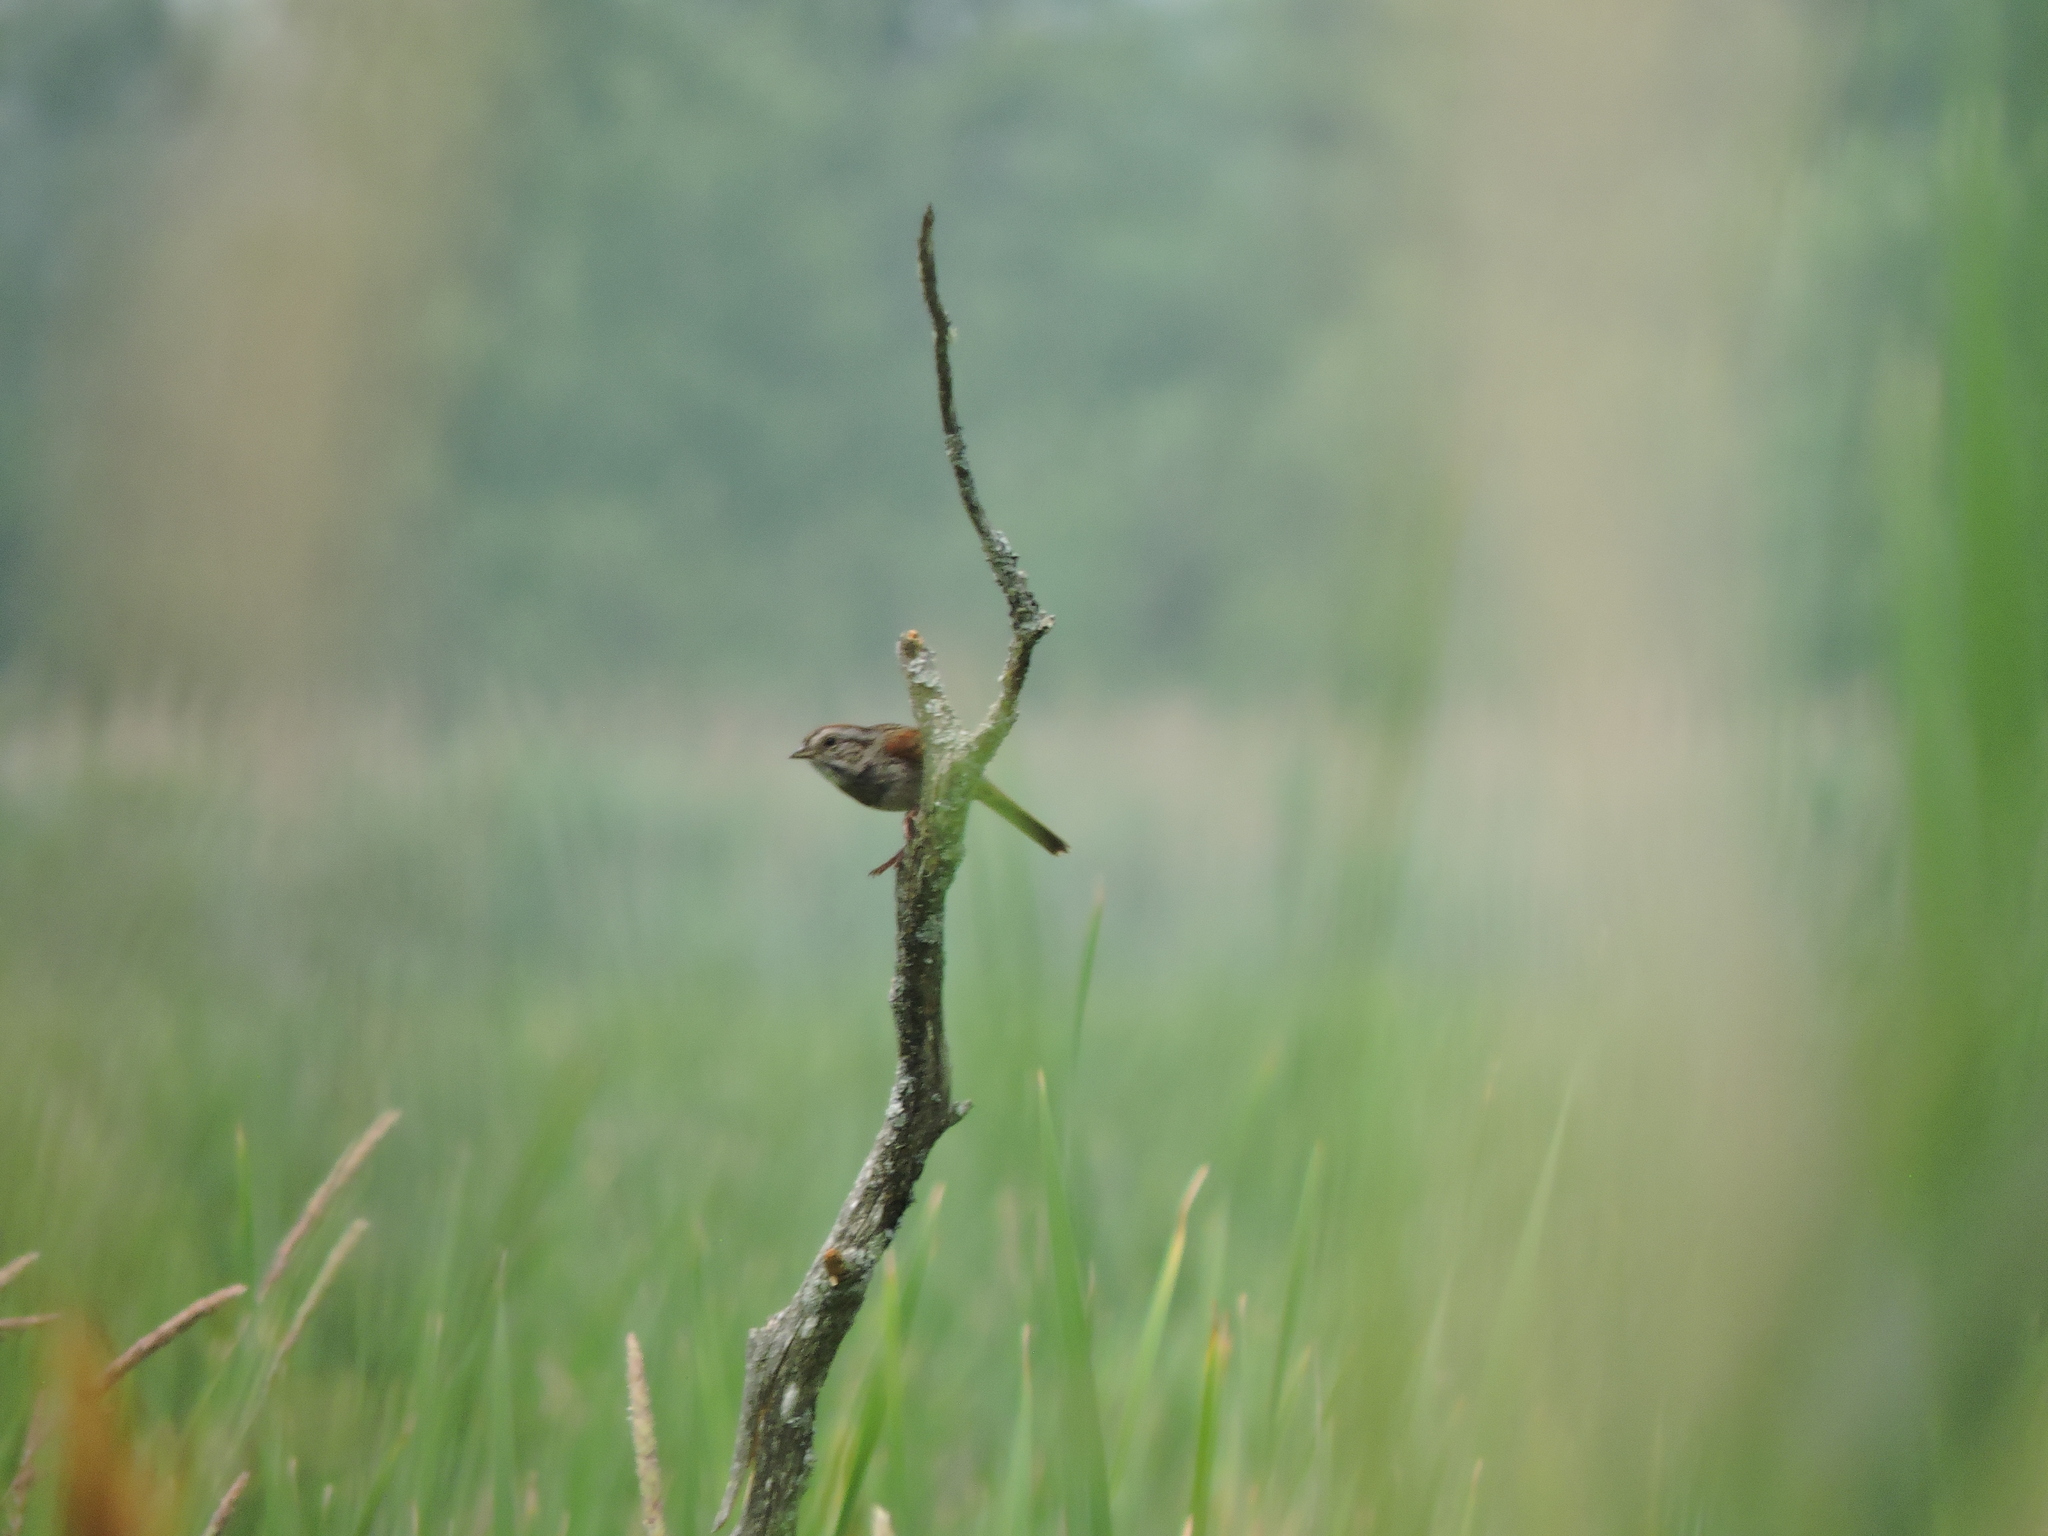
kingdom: Animalia
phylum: Chordata
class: Aves
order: Passeriformes
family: Passerellidae
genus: Melospiza
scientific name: Melospiza georgiana
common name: Swamp sparrow
